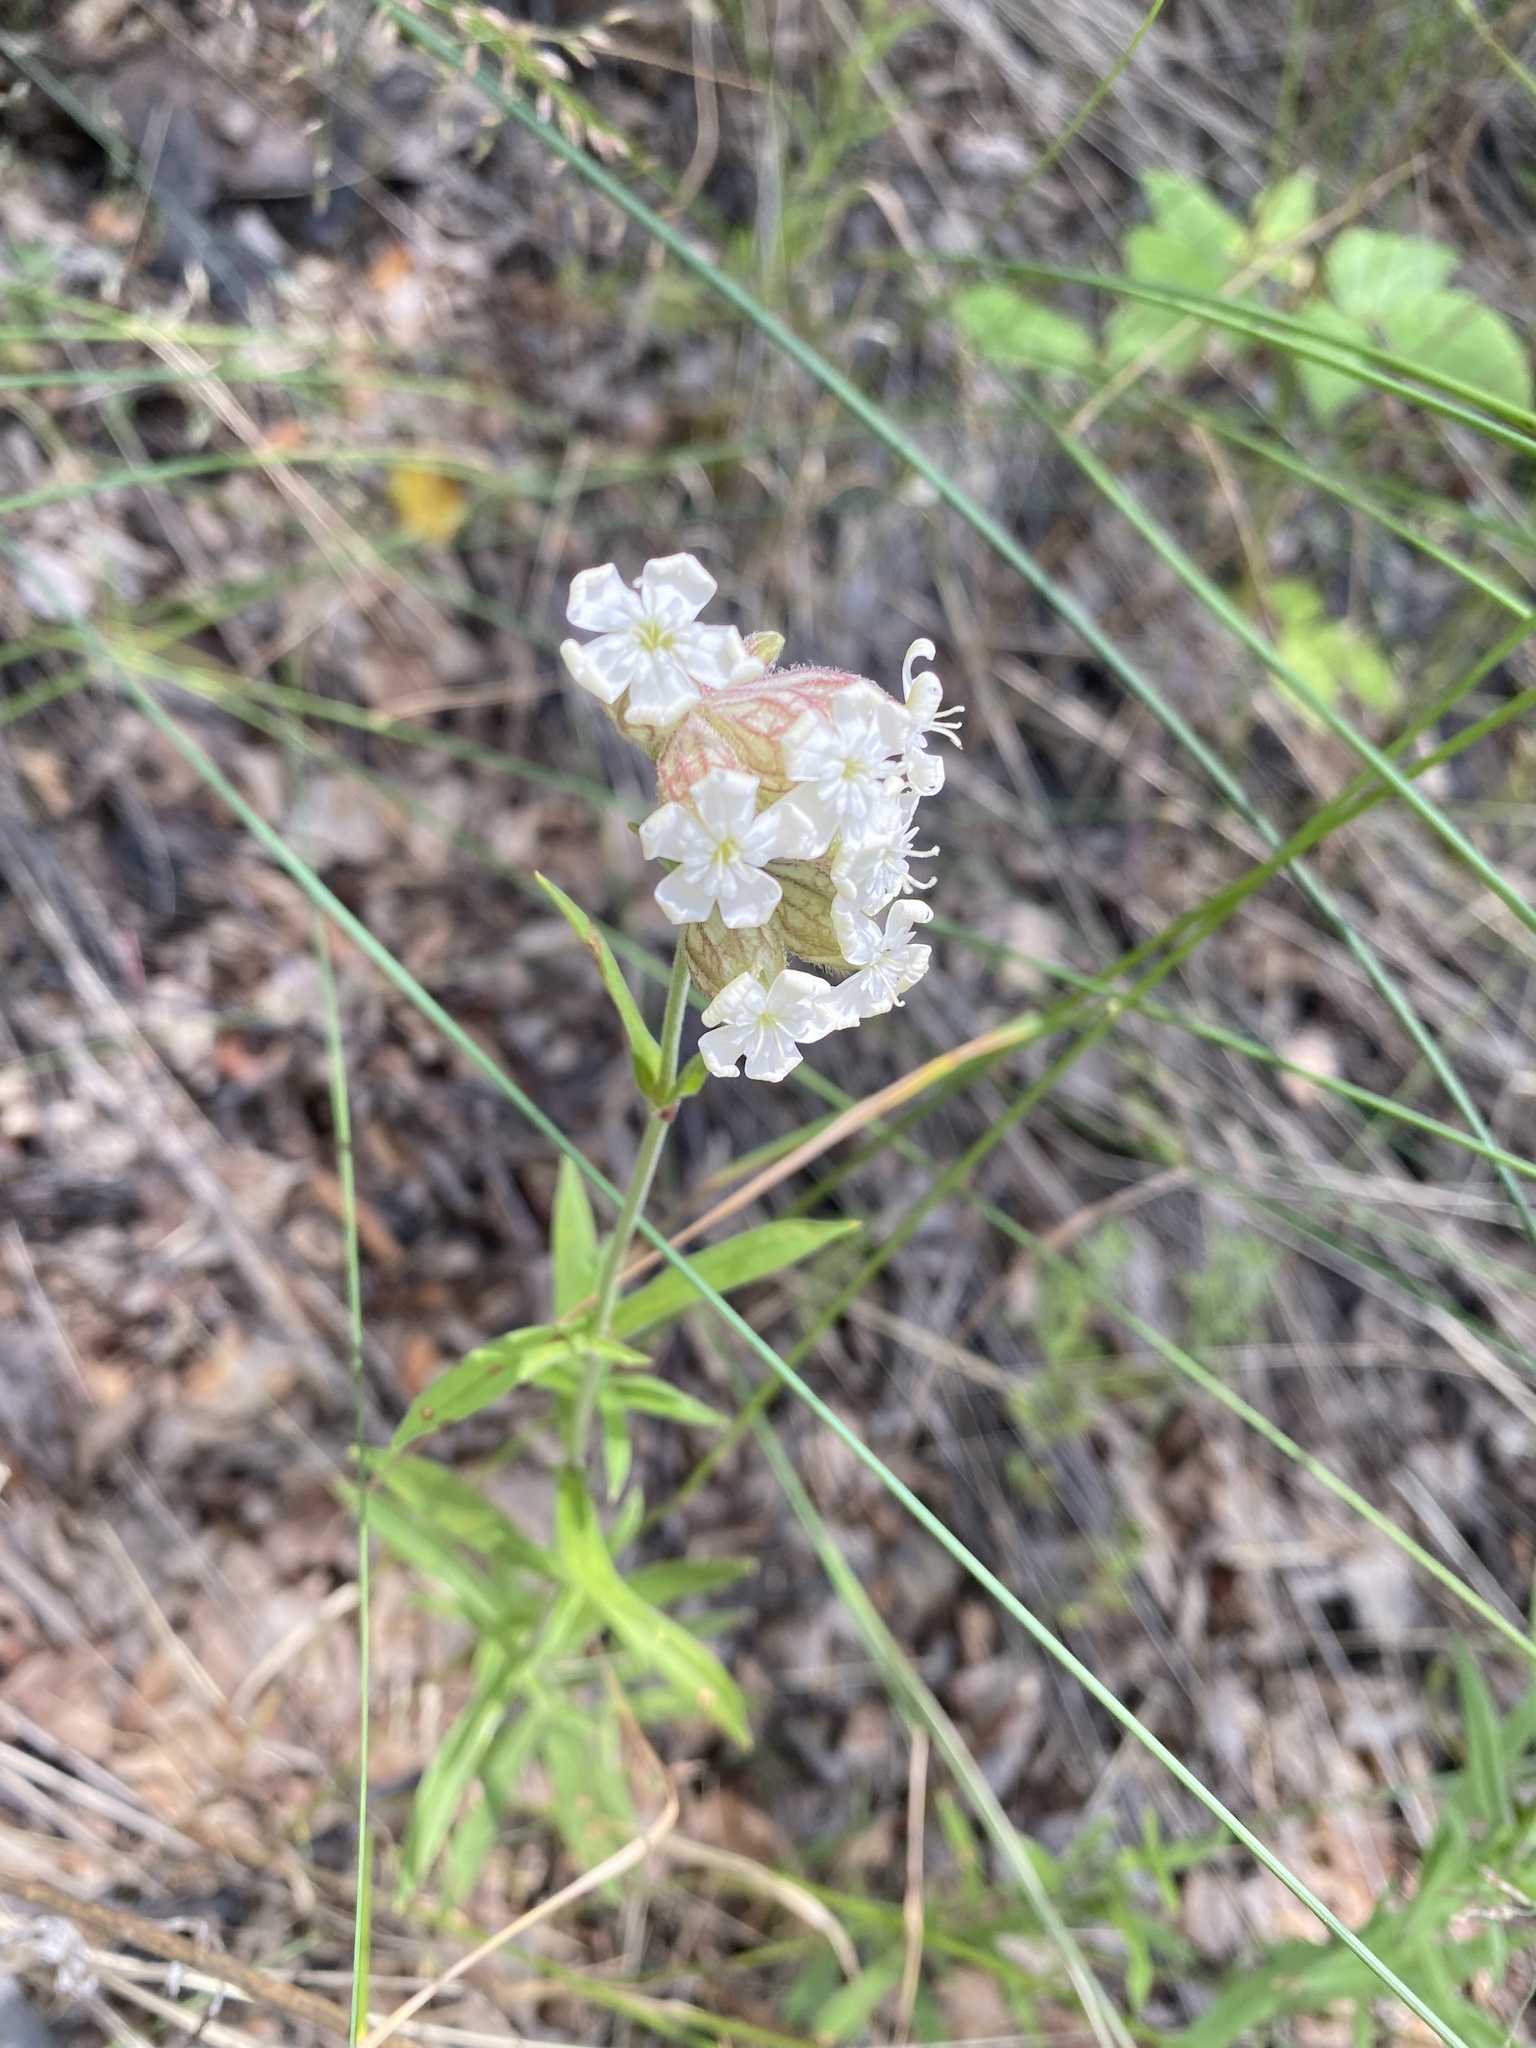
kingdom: Plantae
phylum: Tracheophyta
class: Magnoliopsida
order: Caryophyllales
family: Caryophyllaceae
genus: Silene
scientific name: Silene amoena
